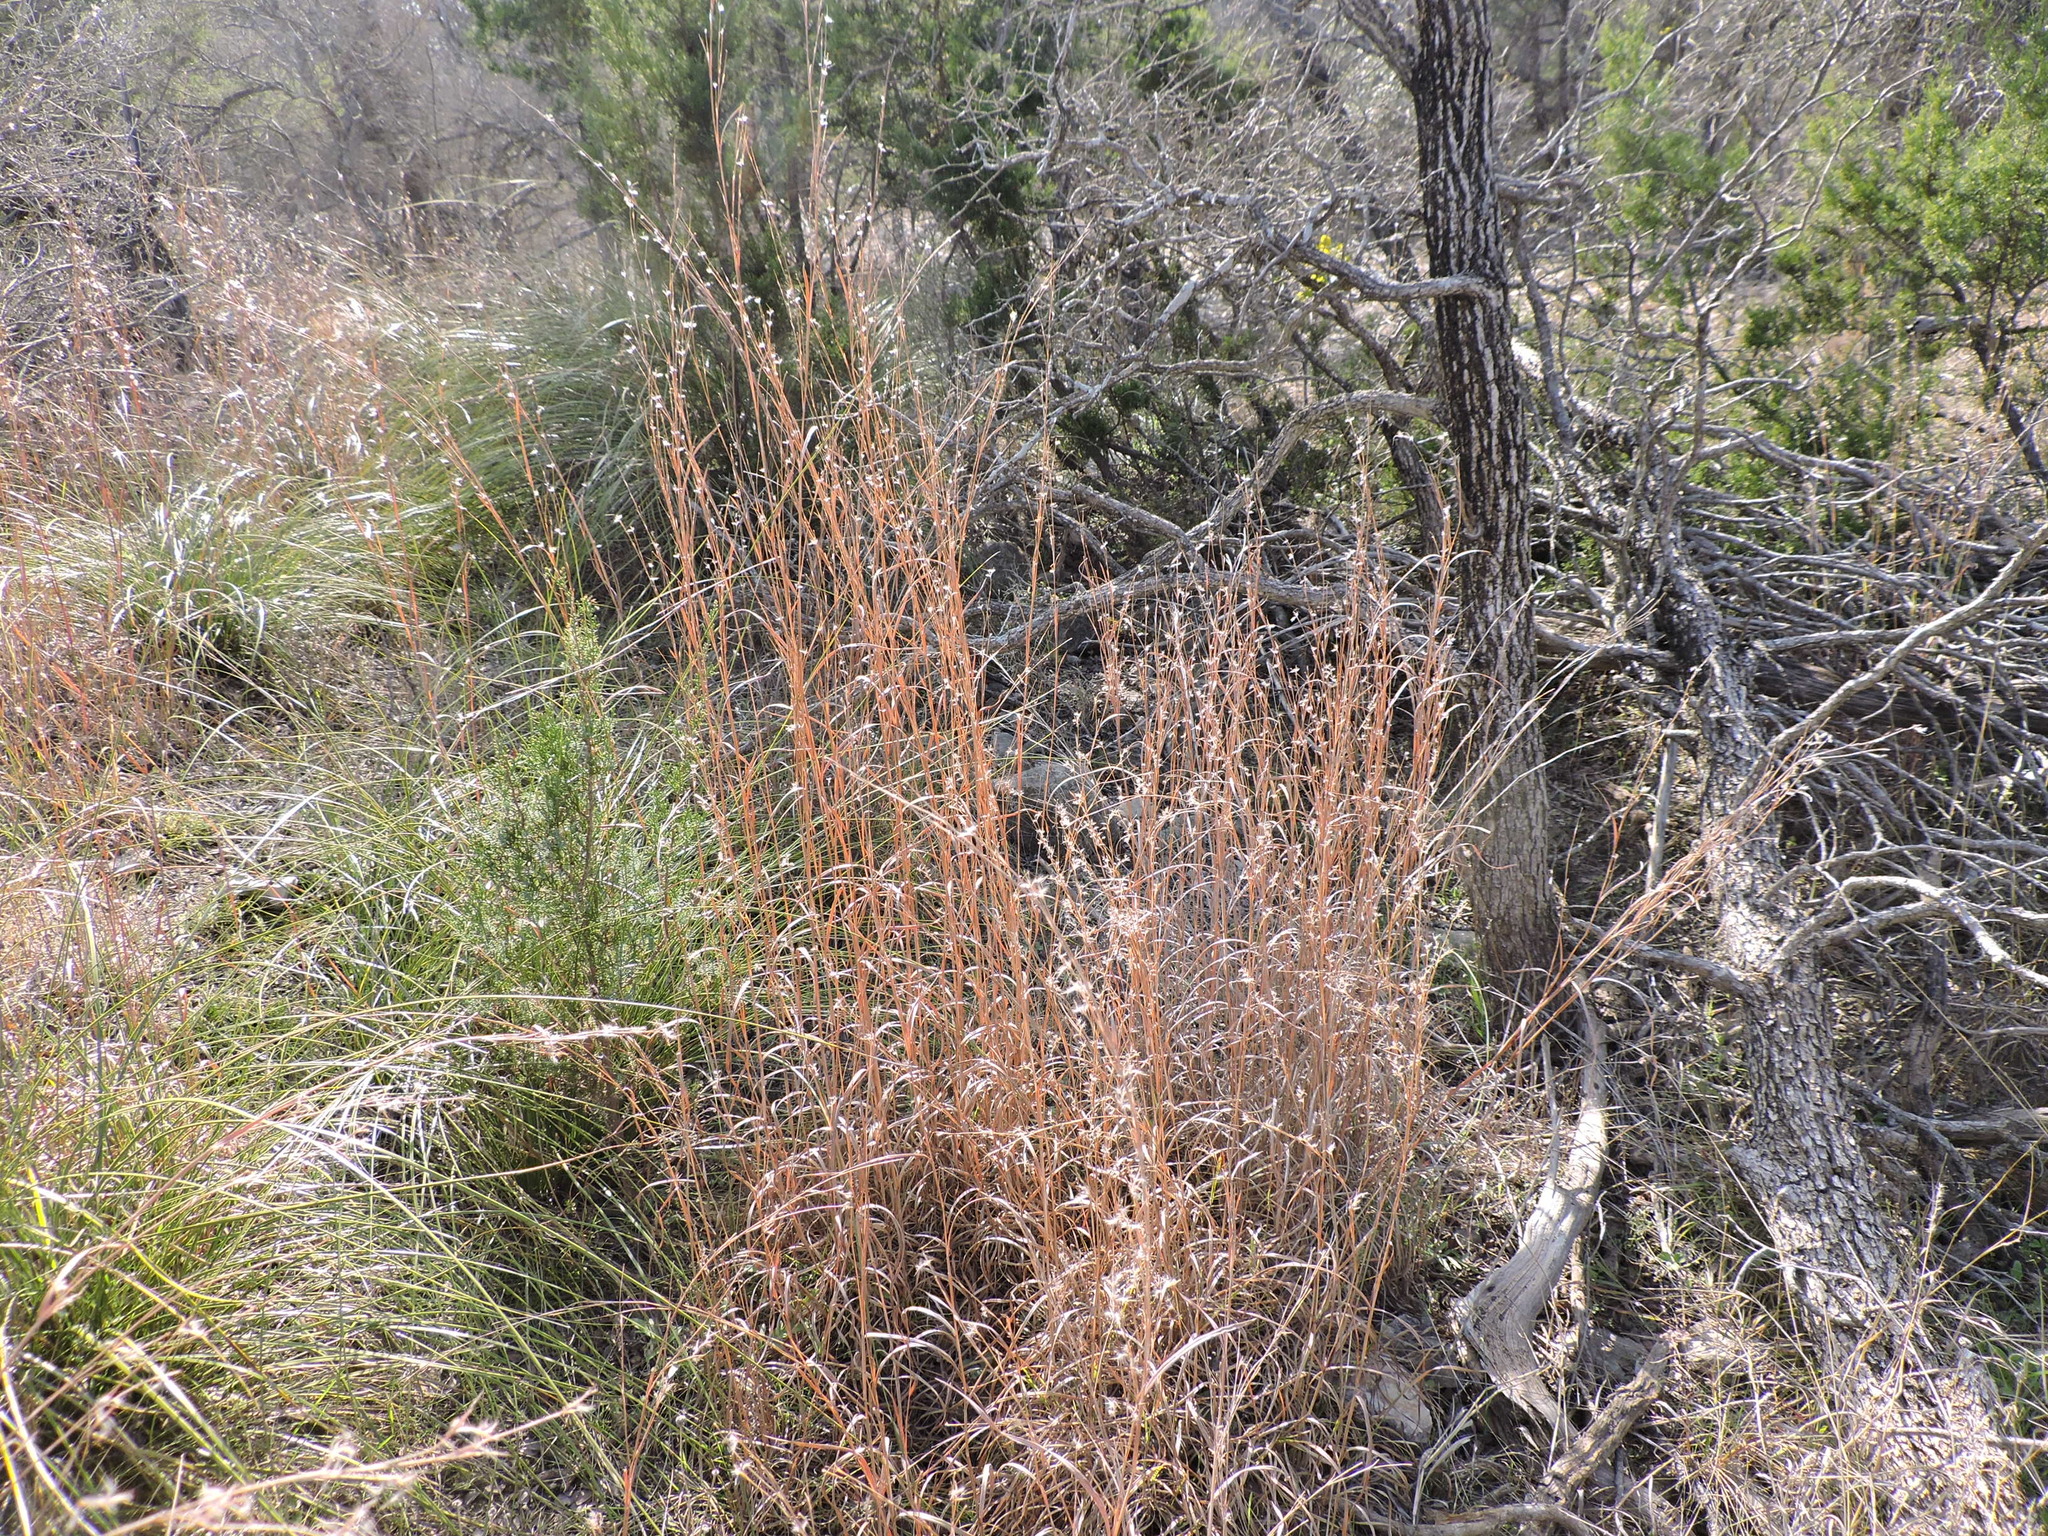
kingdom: Plantae
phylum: Tracheophyta
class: Liliopsida
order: Poales
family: Poaceae
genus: Schizachyrium
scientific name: Schizachyrium scoparium
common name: Little bluestem
